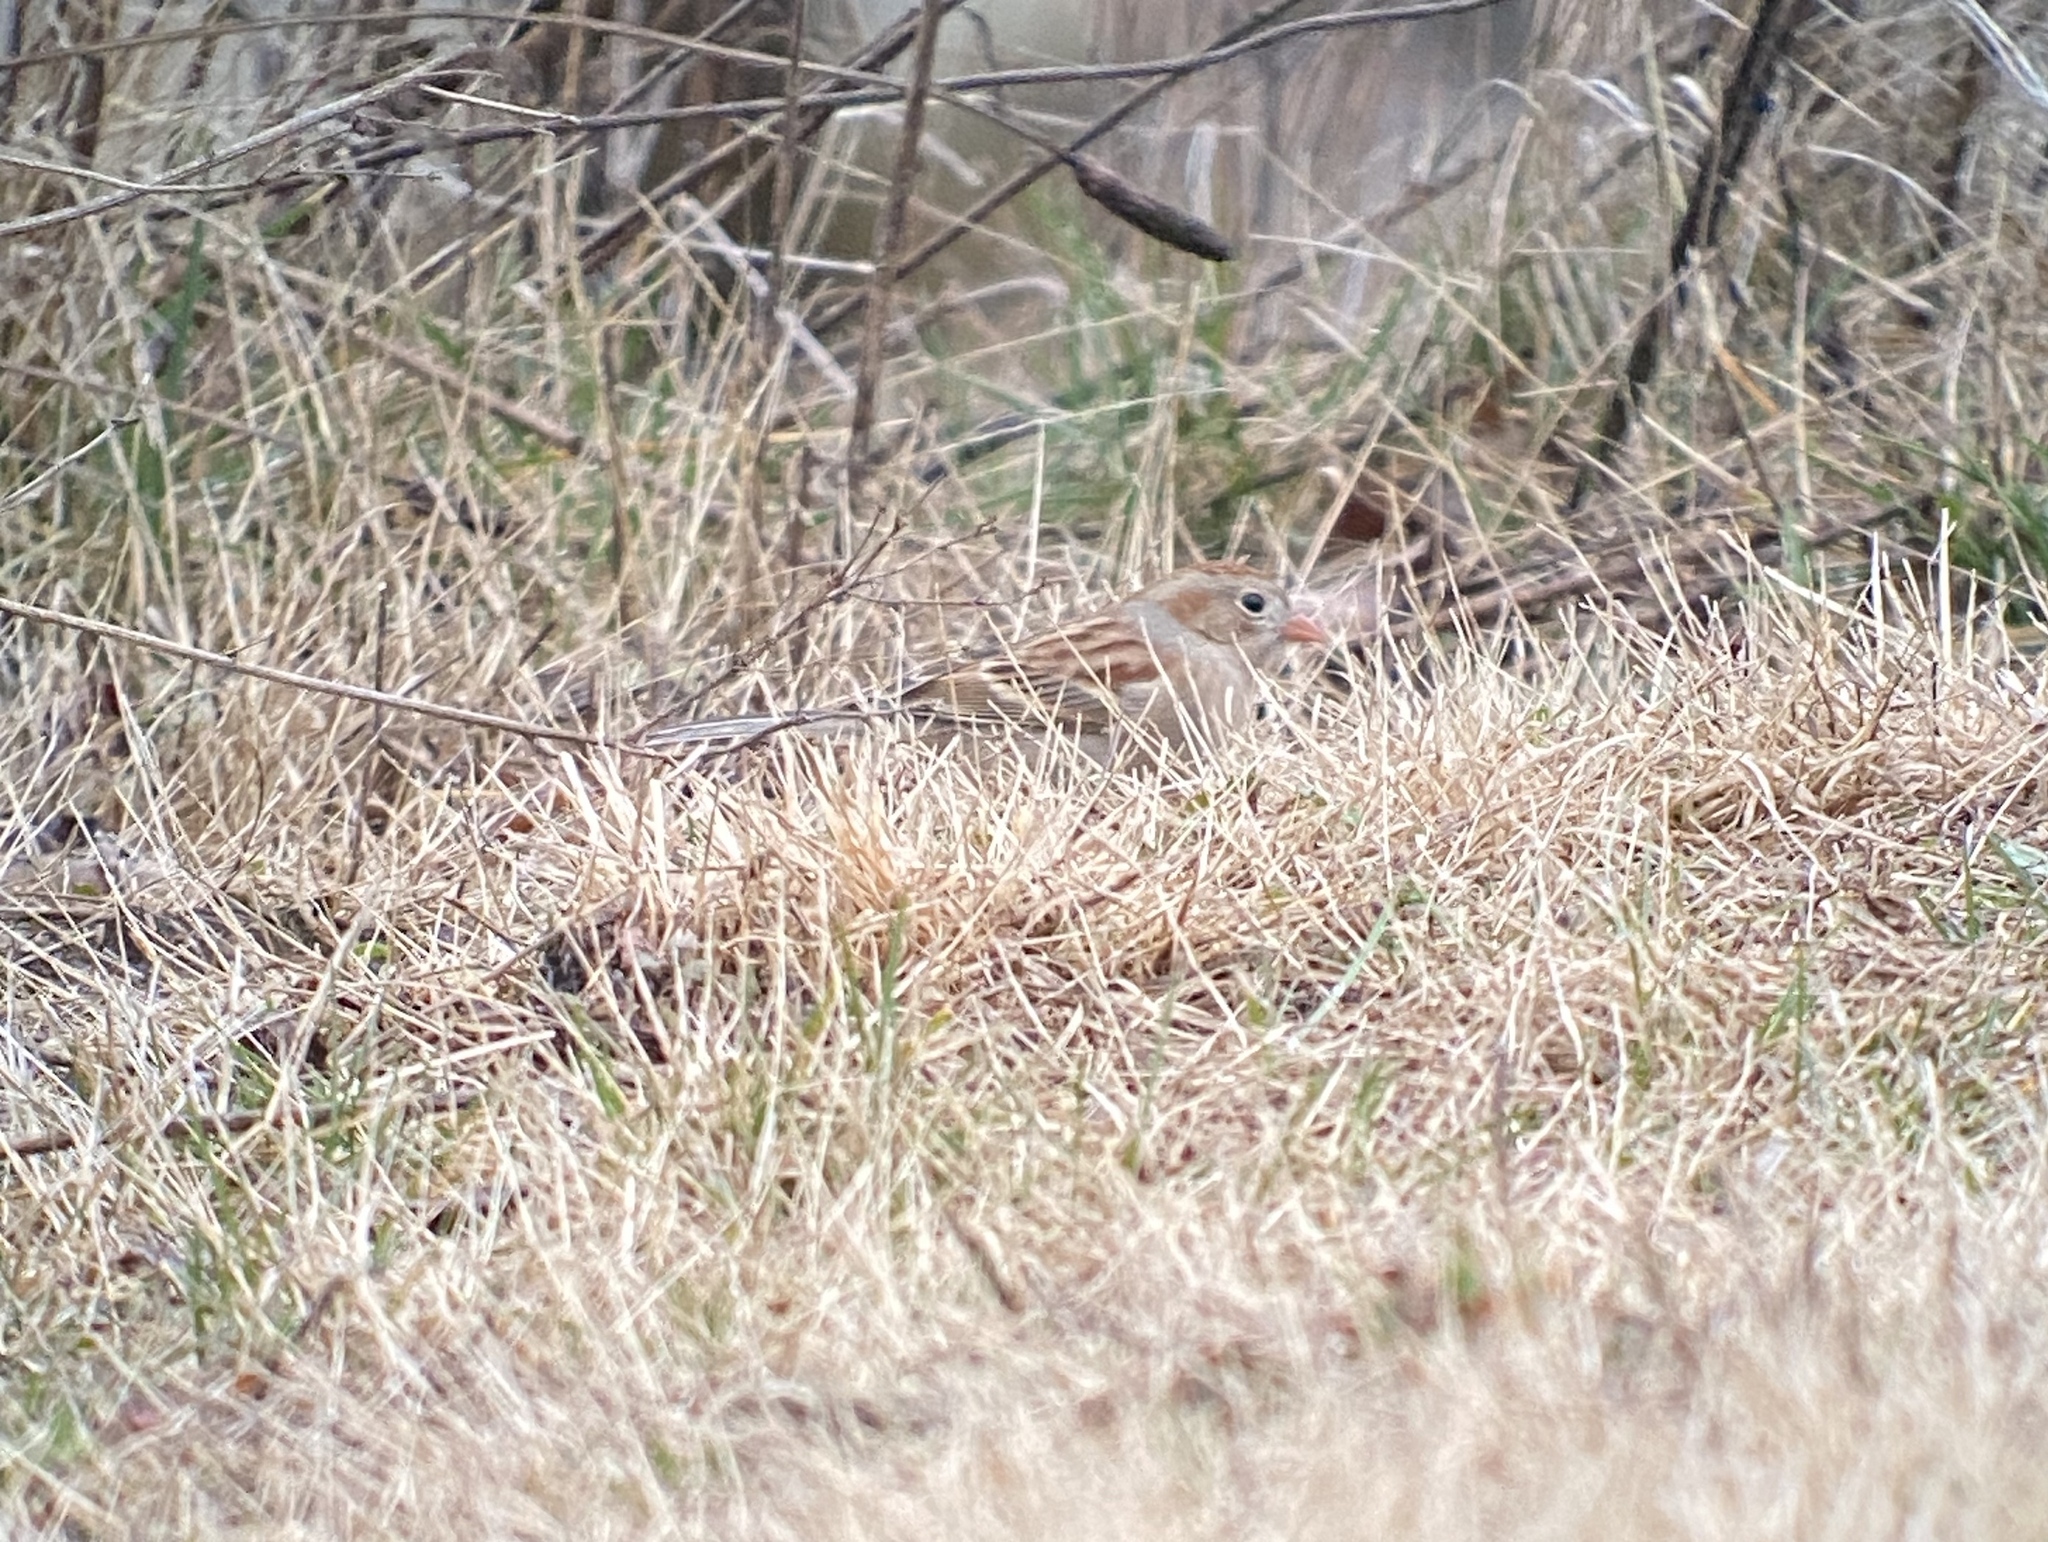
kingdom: Animalia
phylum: Chordata
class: Aves
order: Passeriformes
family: Passerellidae
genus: Spizella
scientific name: Spizella pusilla
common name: Field sparrow
